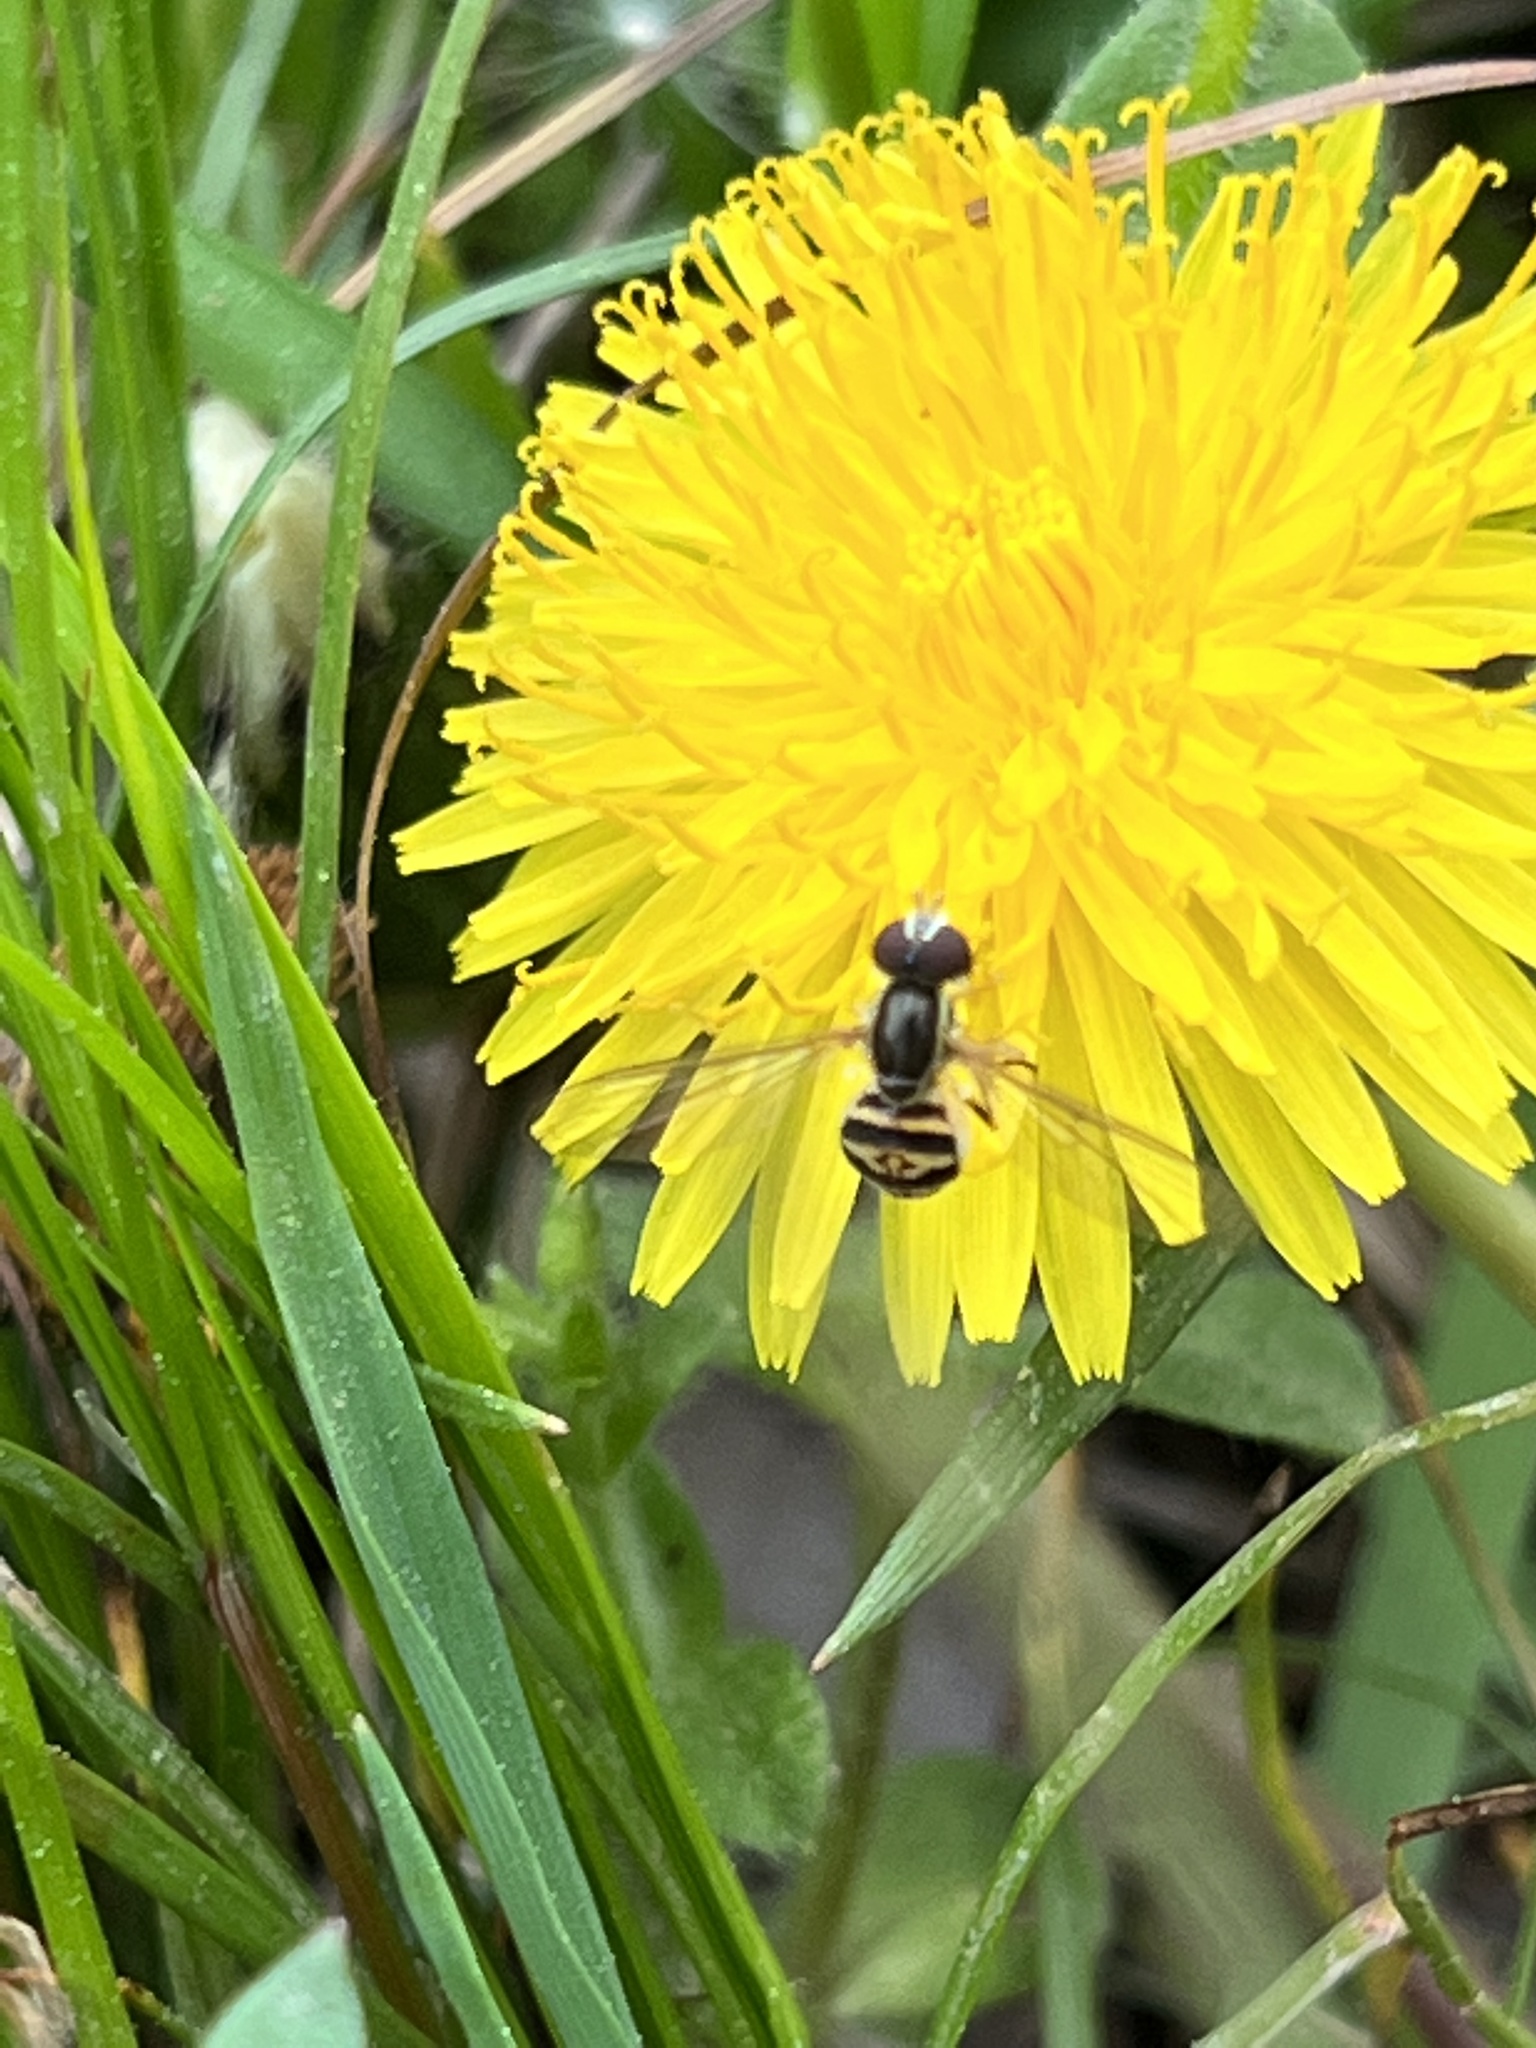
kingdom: Animalia
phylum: Arthropoda
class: Insecta
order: Diptera
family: Syrphidae
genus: Toxomerus
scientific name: Toxomerus geminatus
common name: Eastern calligrapher
